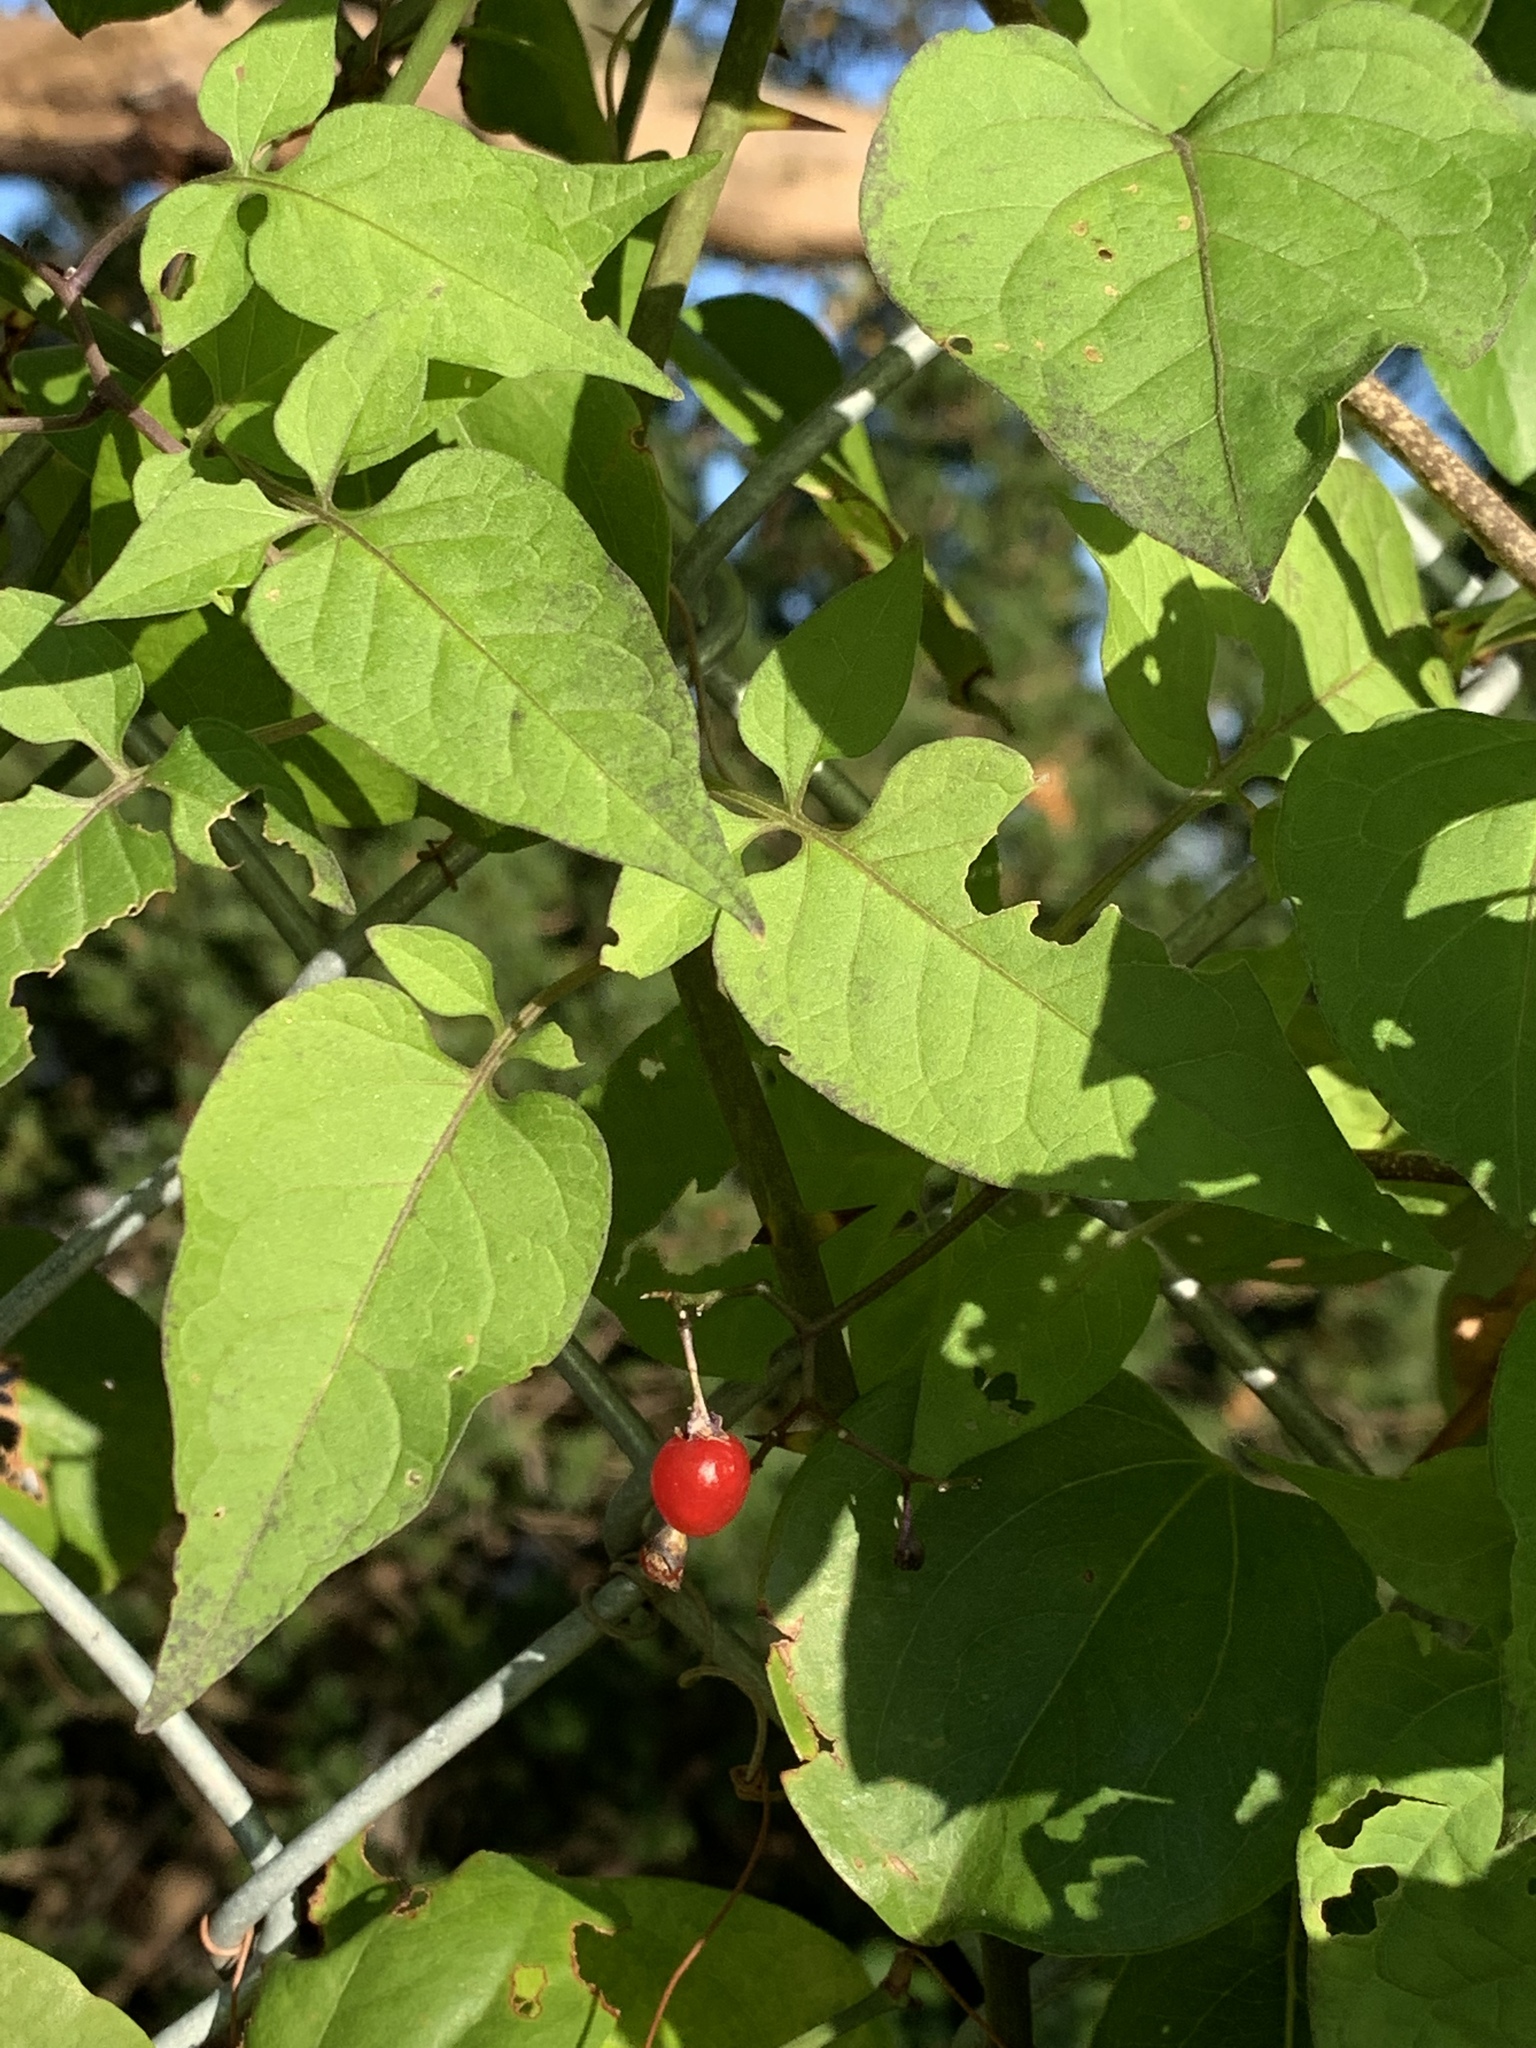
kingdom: Plantae
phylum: Tracheophyta
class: Magnoliopsida
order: Solanales
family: Solanaceae
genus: Solanum
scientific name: Solanum dulcamara
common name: Climbing nightshade
